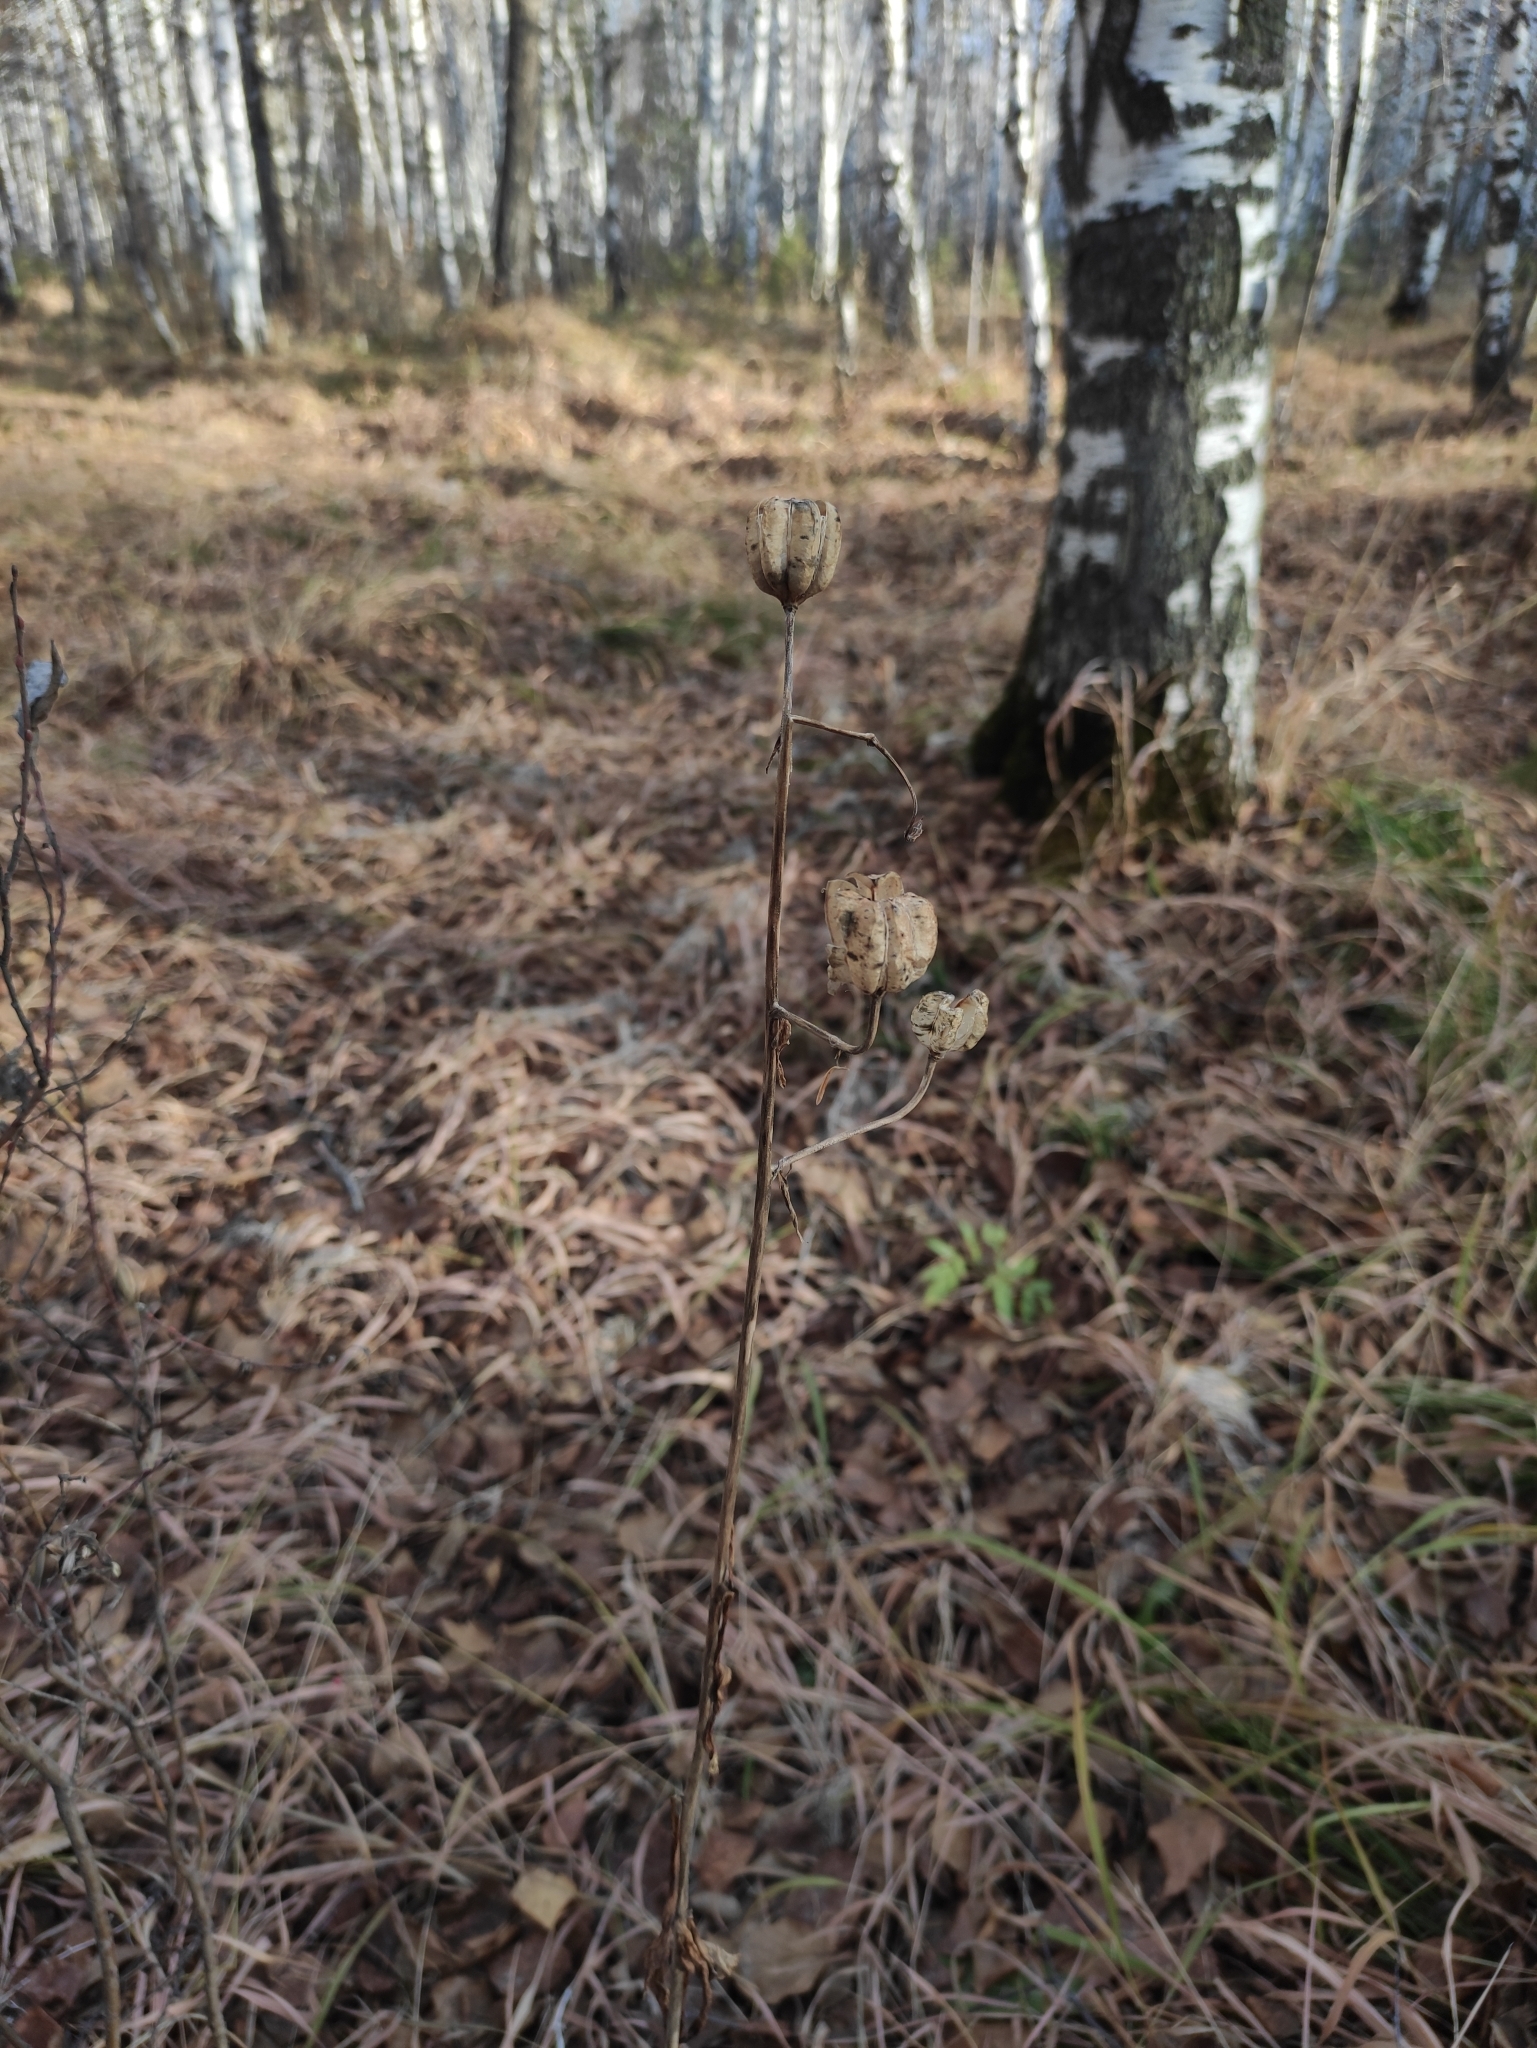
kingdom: Plantae
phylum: Tracheophyta
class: Liliopsida
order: Liliales
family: Liliaceae
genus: Lilium
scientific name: Lilium martagon
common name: Martagon lily
